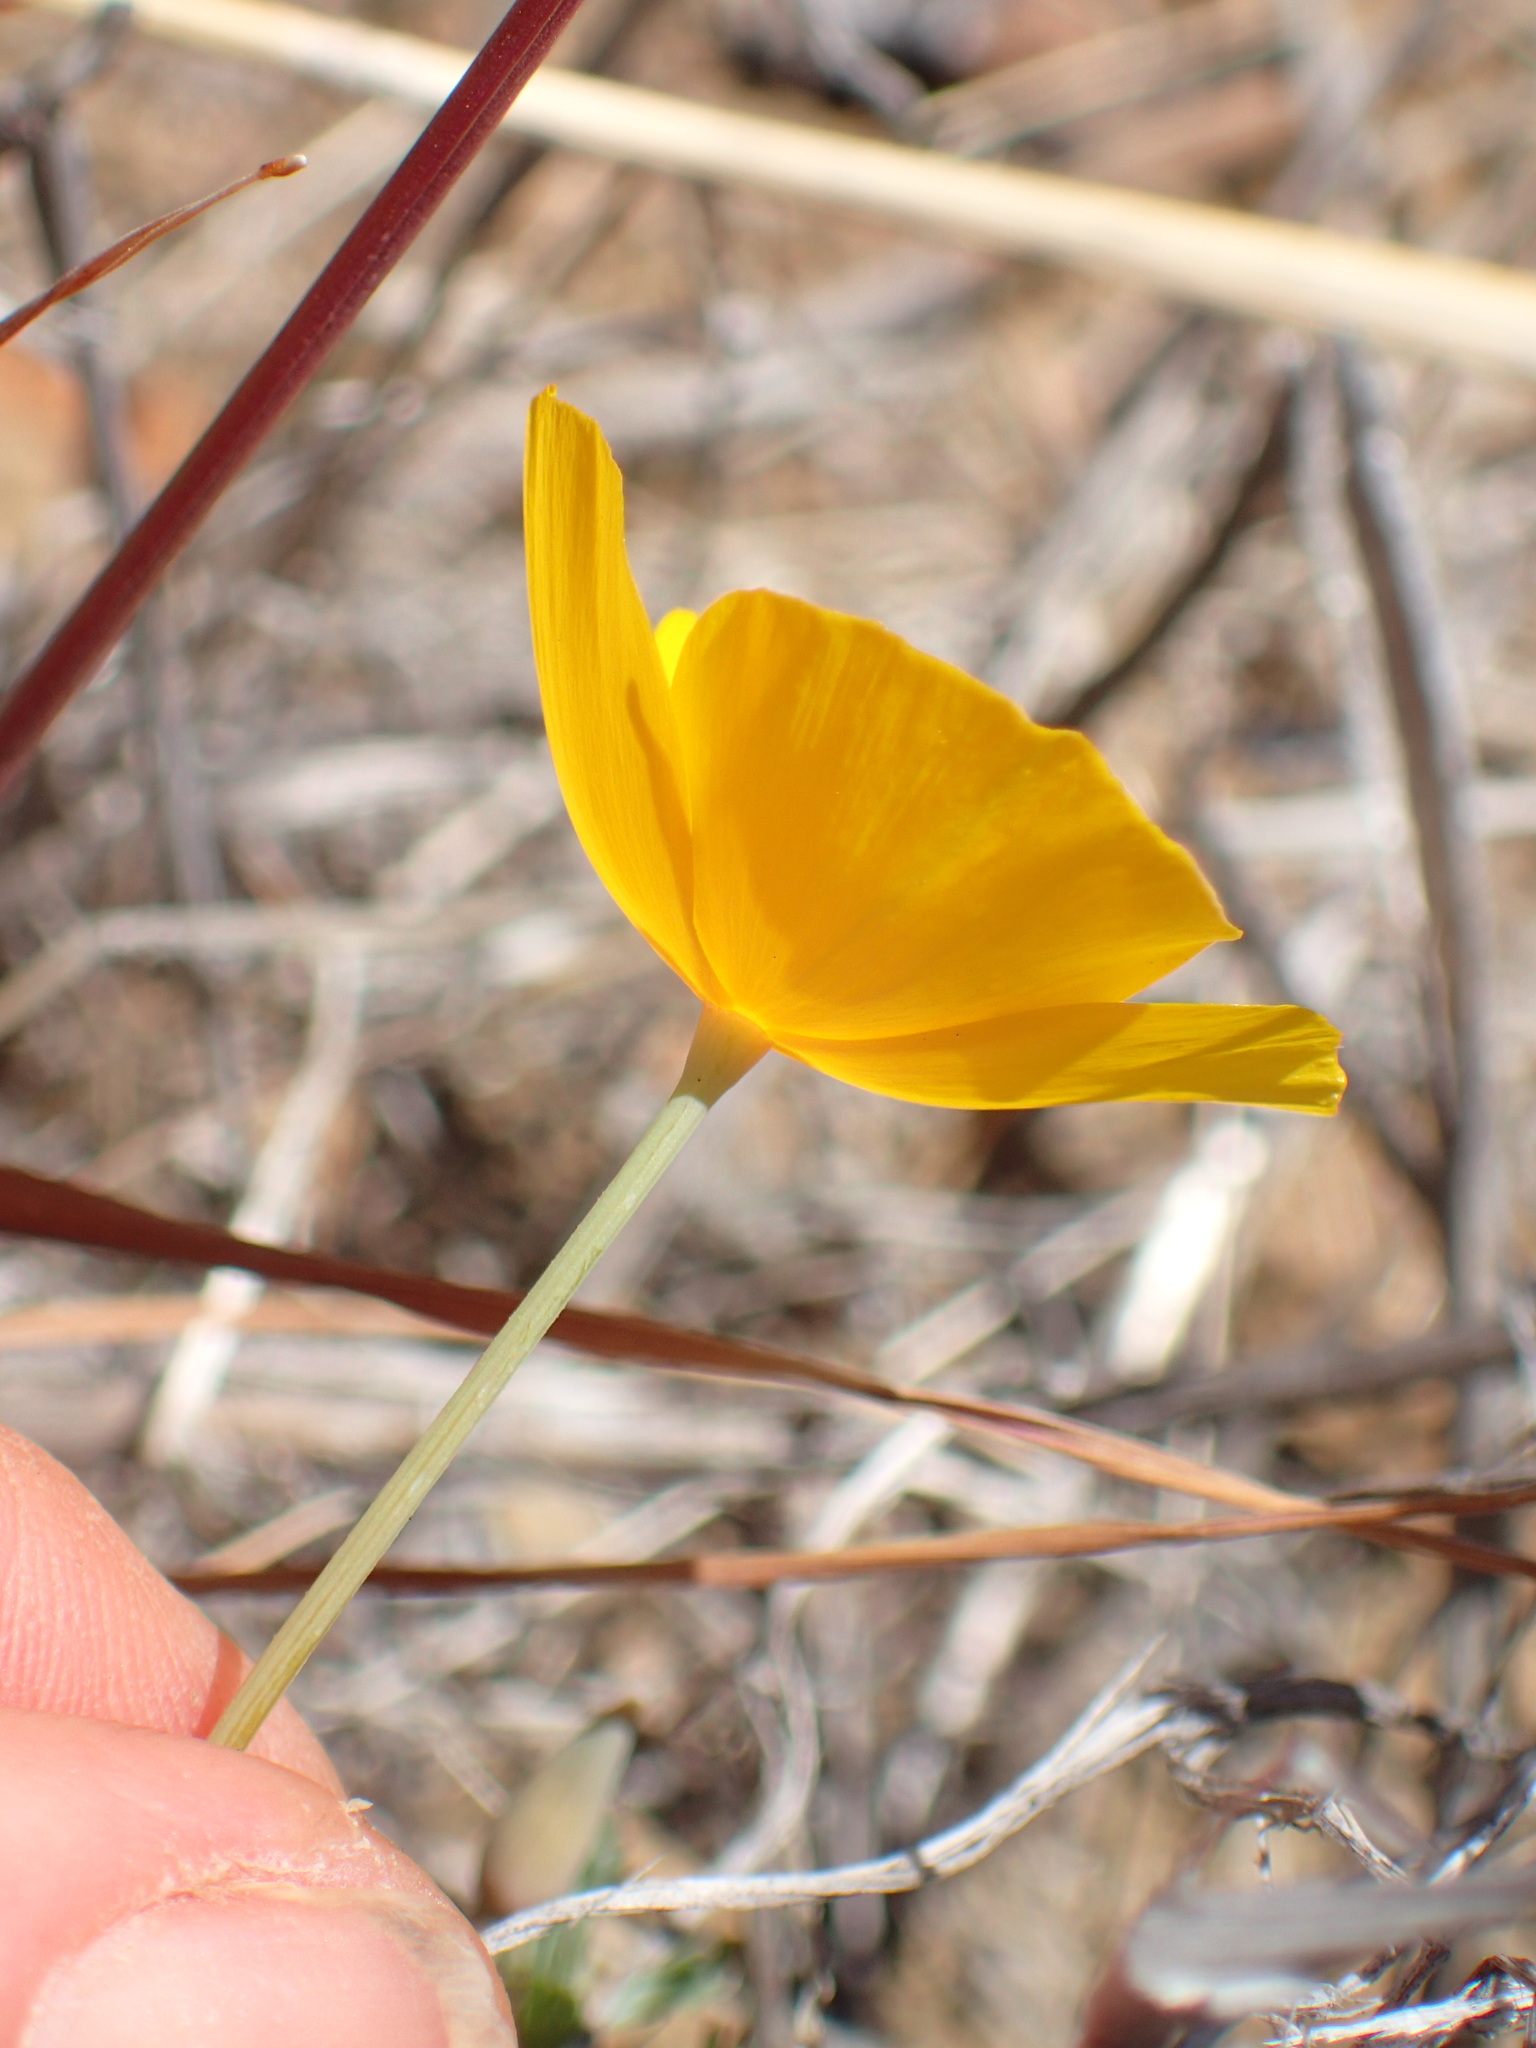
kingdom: Plantae
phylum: Tracheophyta
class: Magnoliopsida
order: Ranunculales
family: Papaveraceae
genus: Eschscholzia
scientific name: Eschscholzia caespitosa
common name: Tufted california-poppy
